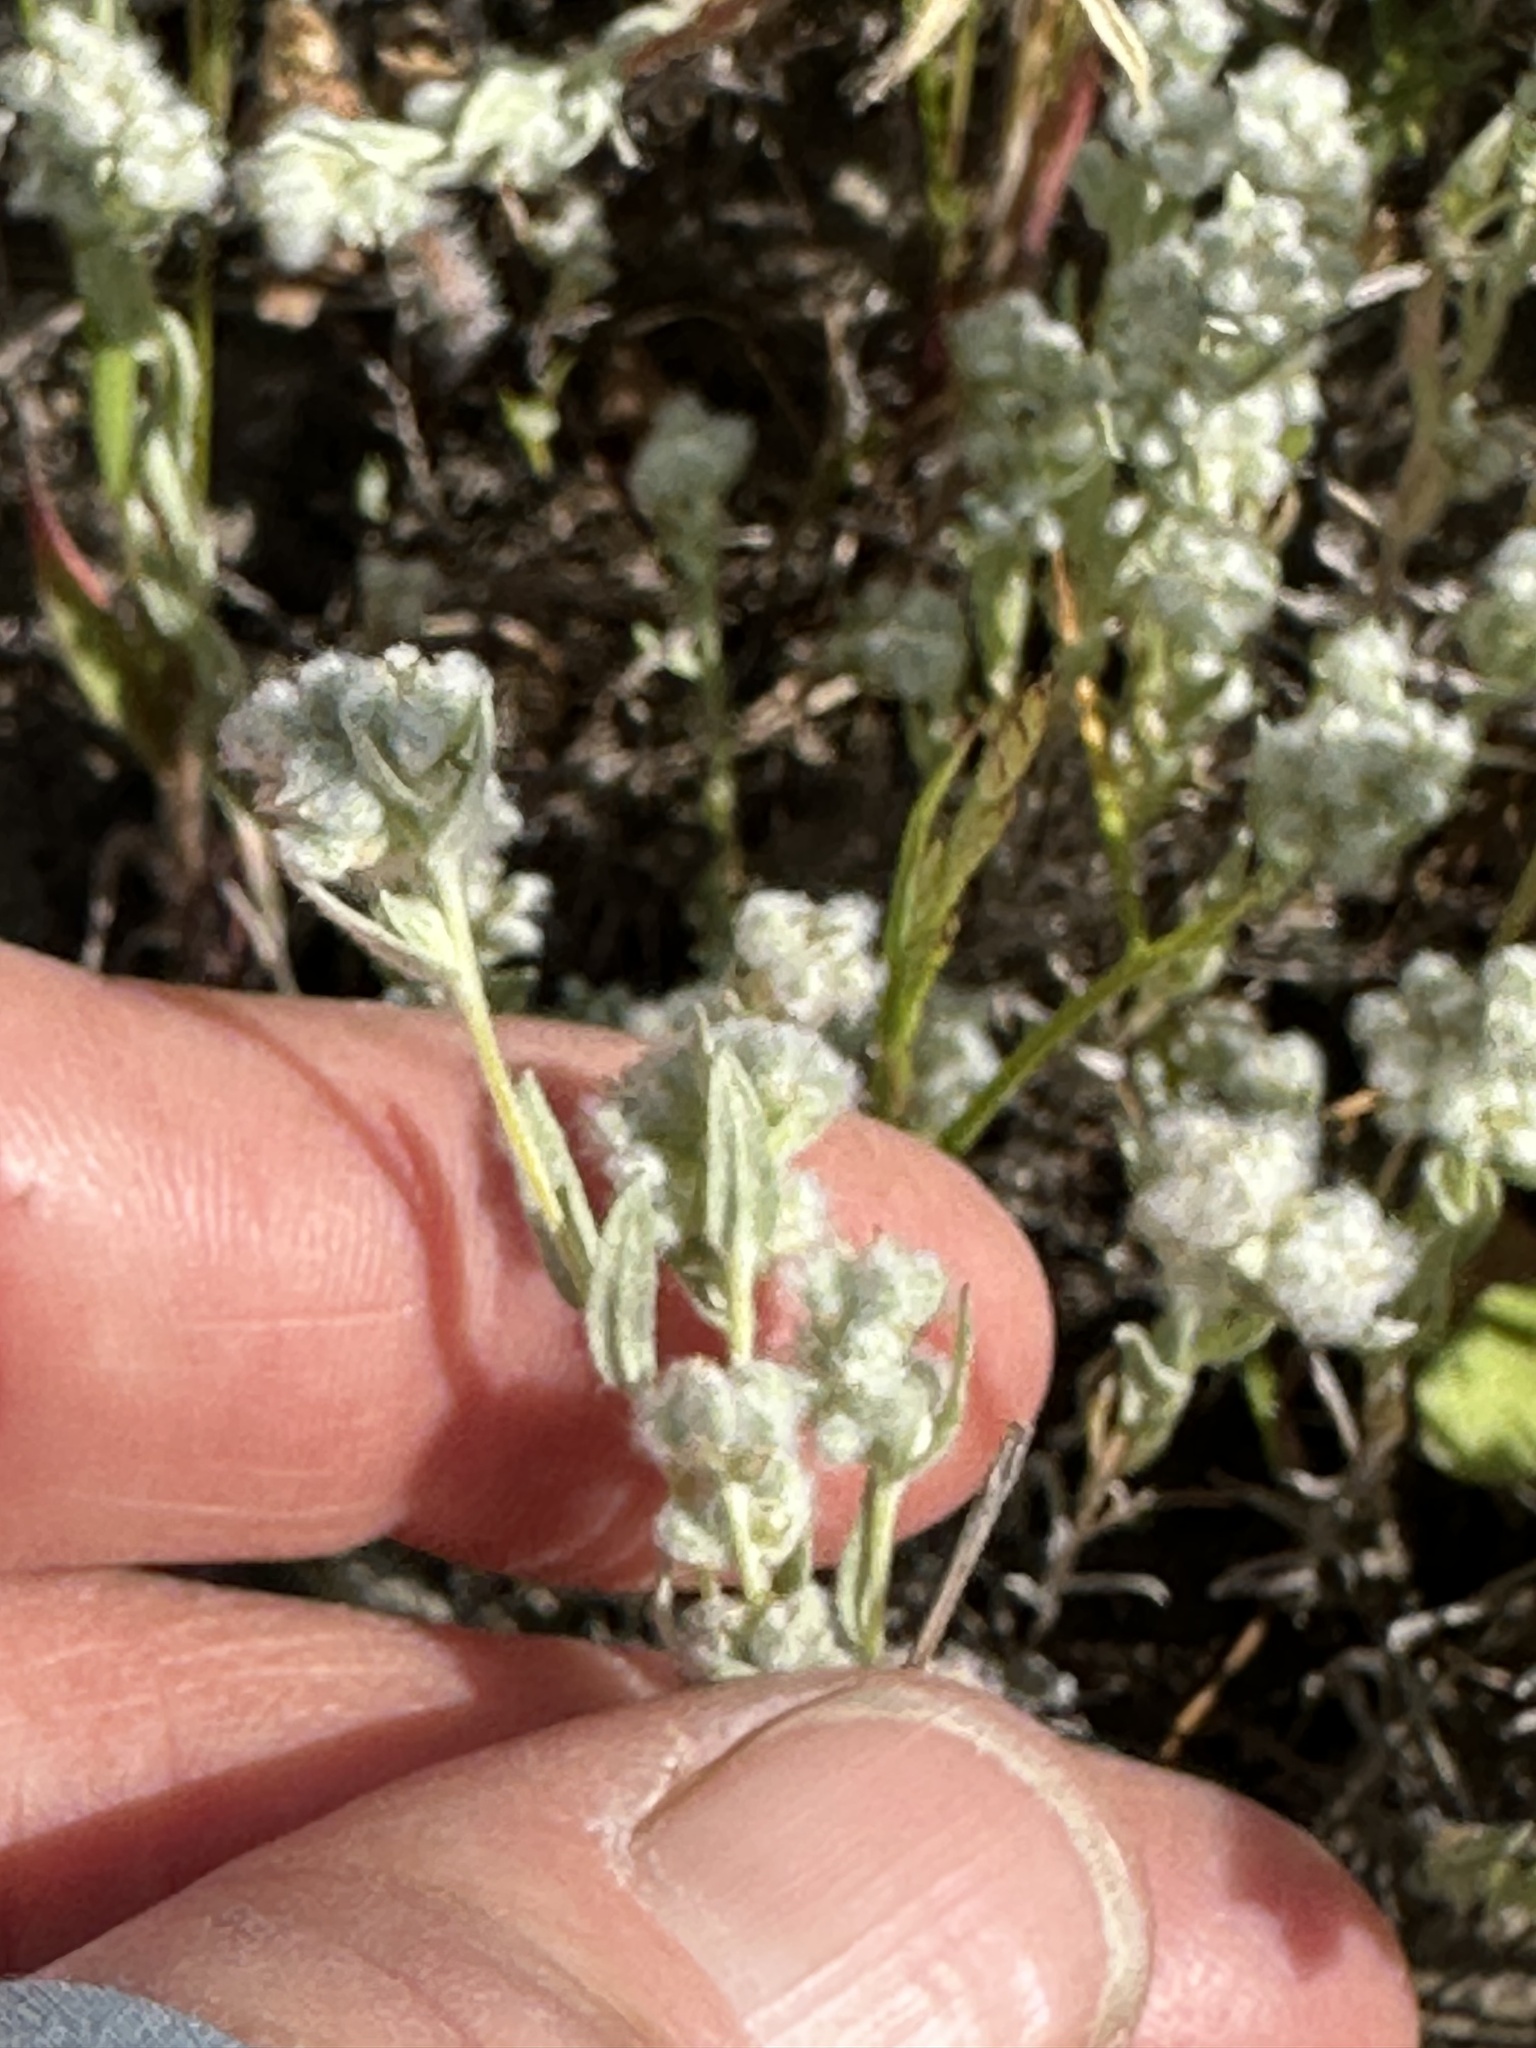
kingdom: Plantae
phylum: Tracheophyta
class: Magnoliopsida
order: Asterales
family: Asteraceae
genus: Bombycilaena
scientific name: Bombycilaena californica
